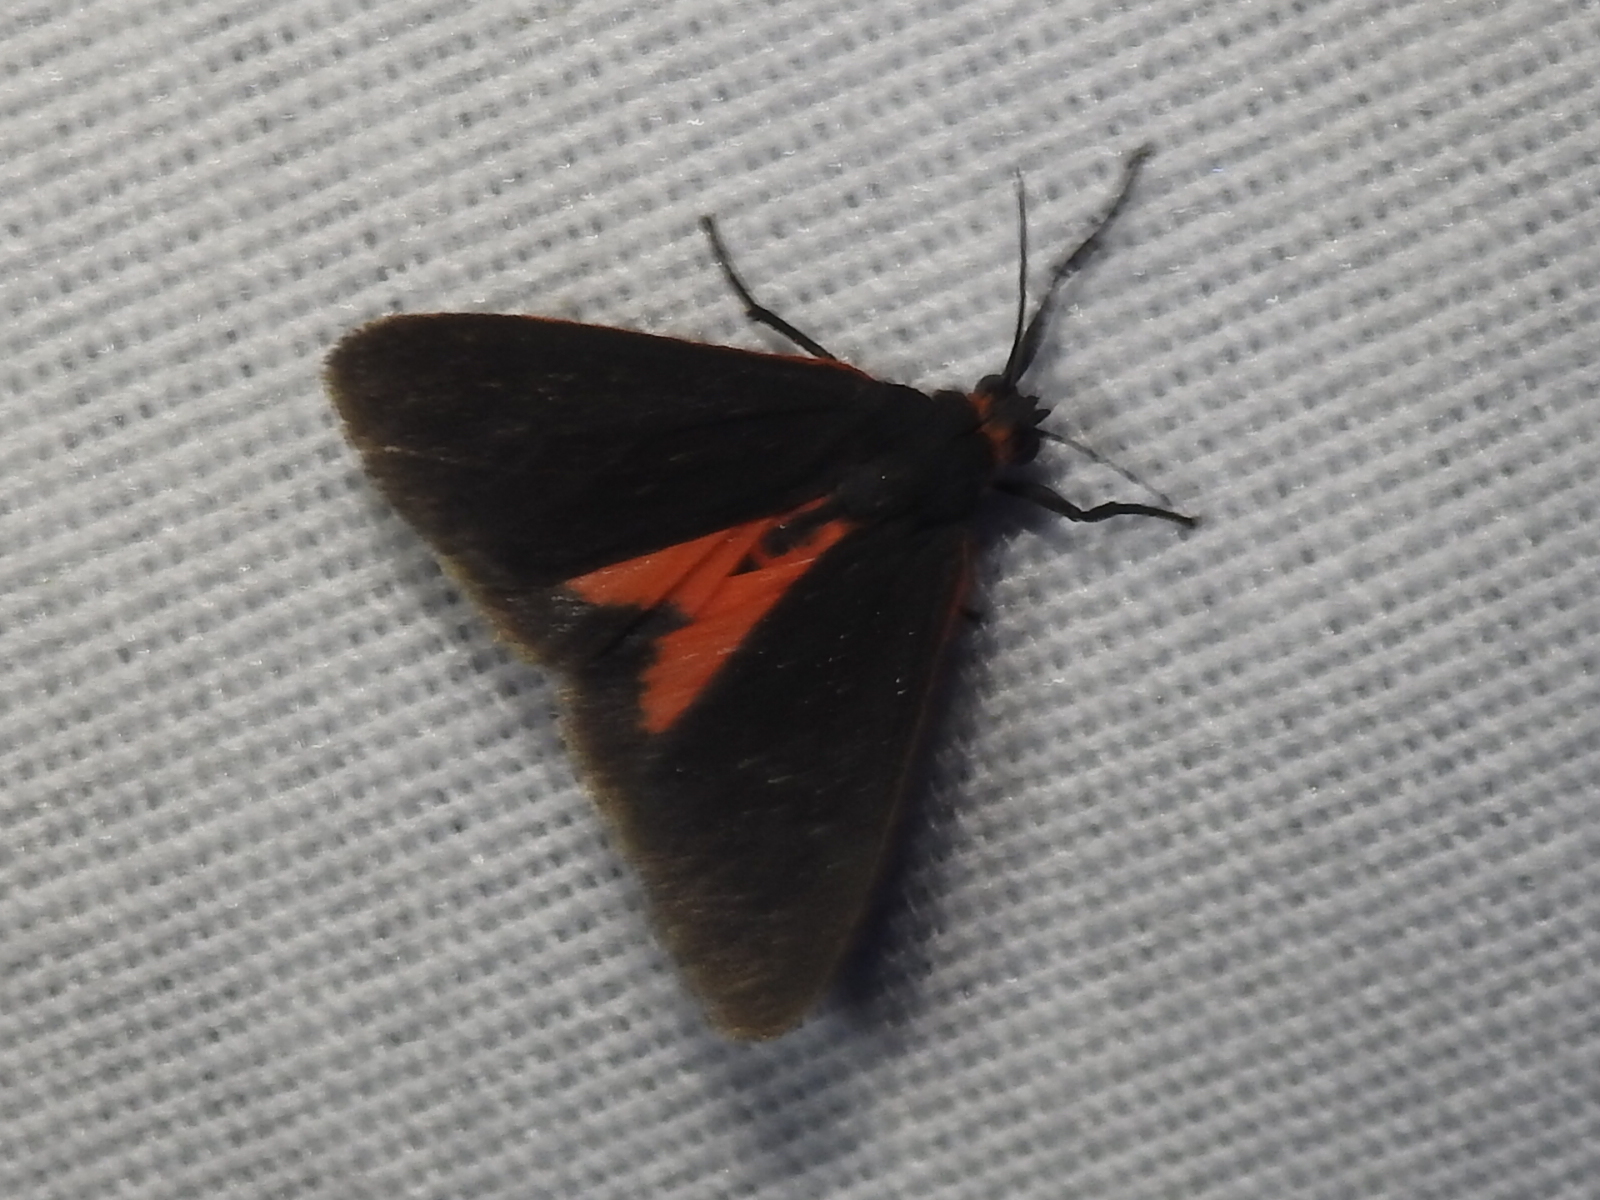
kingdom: Animalia
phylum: Arthropoda
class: Insecta
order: Lepidoptera
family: Erebidae
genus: Virbia
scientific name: Virbia laeta
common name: Joyful holomelina moth
